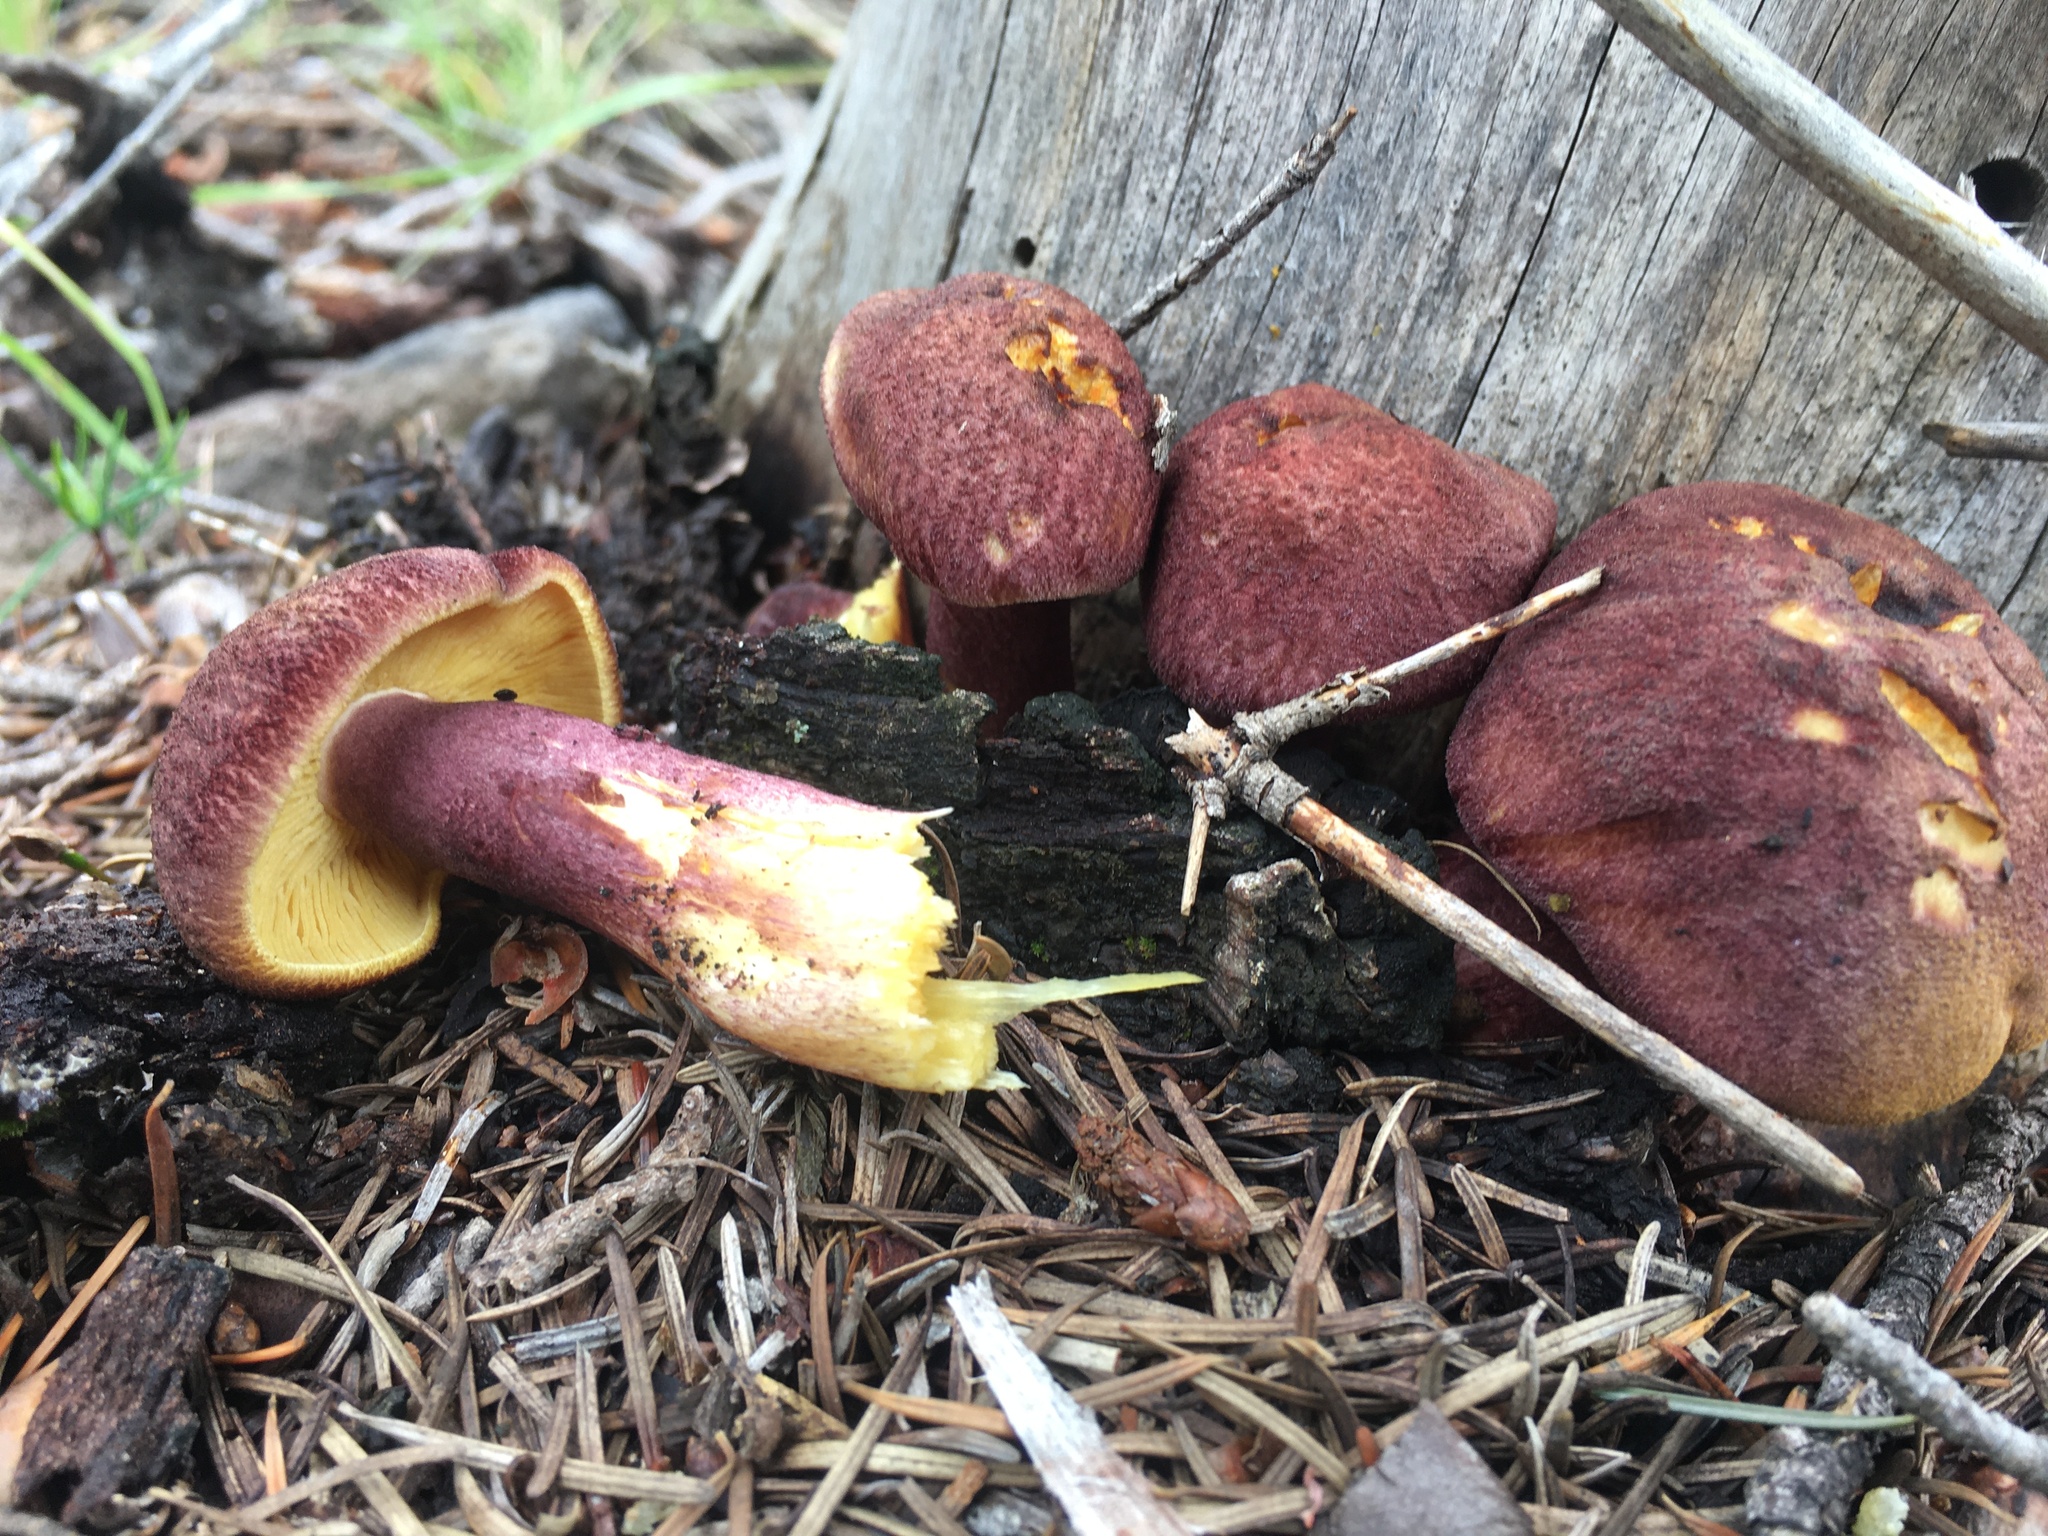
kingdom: Fungi
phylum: Basidiomycota
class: Agaricomycetes
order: Agaricales
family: Tricholomataceae
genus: Tricholomopsis
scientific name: Tricholomopsis rutilans
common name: Plums and custard
